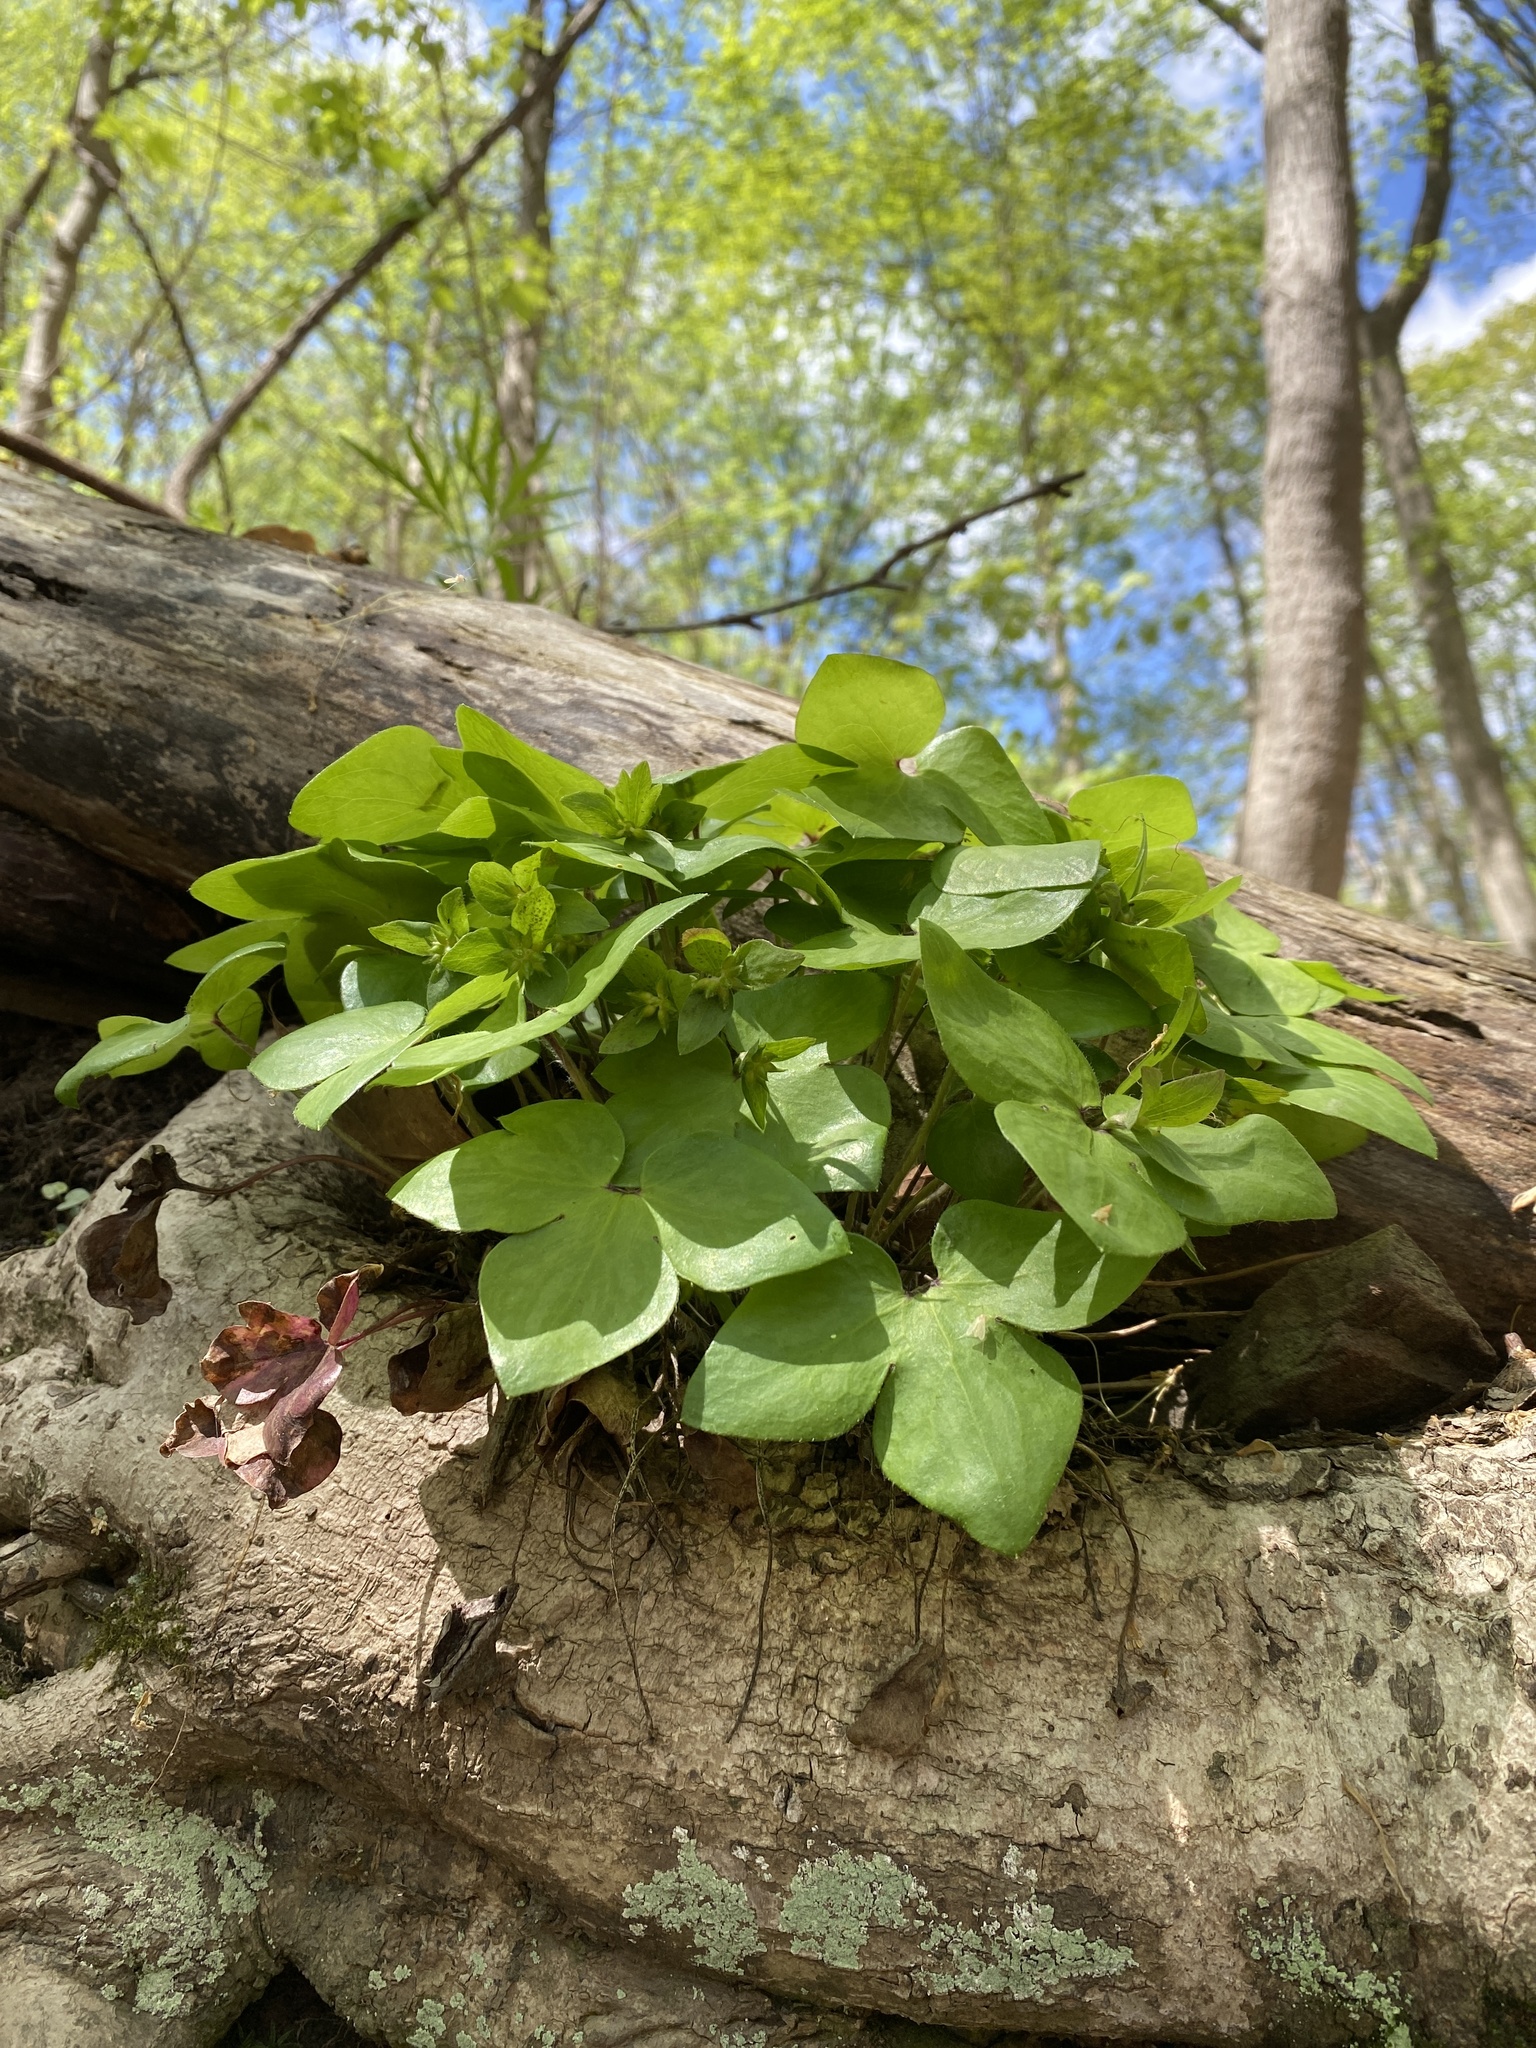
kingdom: Plantae
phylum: Tracheophyta
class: Magnoliopsida
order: Ranunculales
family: Ranunculaceae
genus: Hepatica
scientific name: Hepatica acutiloba
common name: Sharp-lobed hepatica
